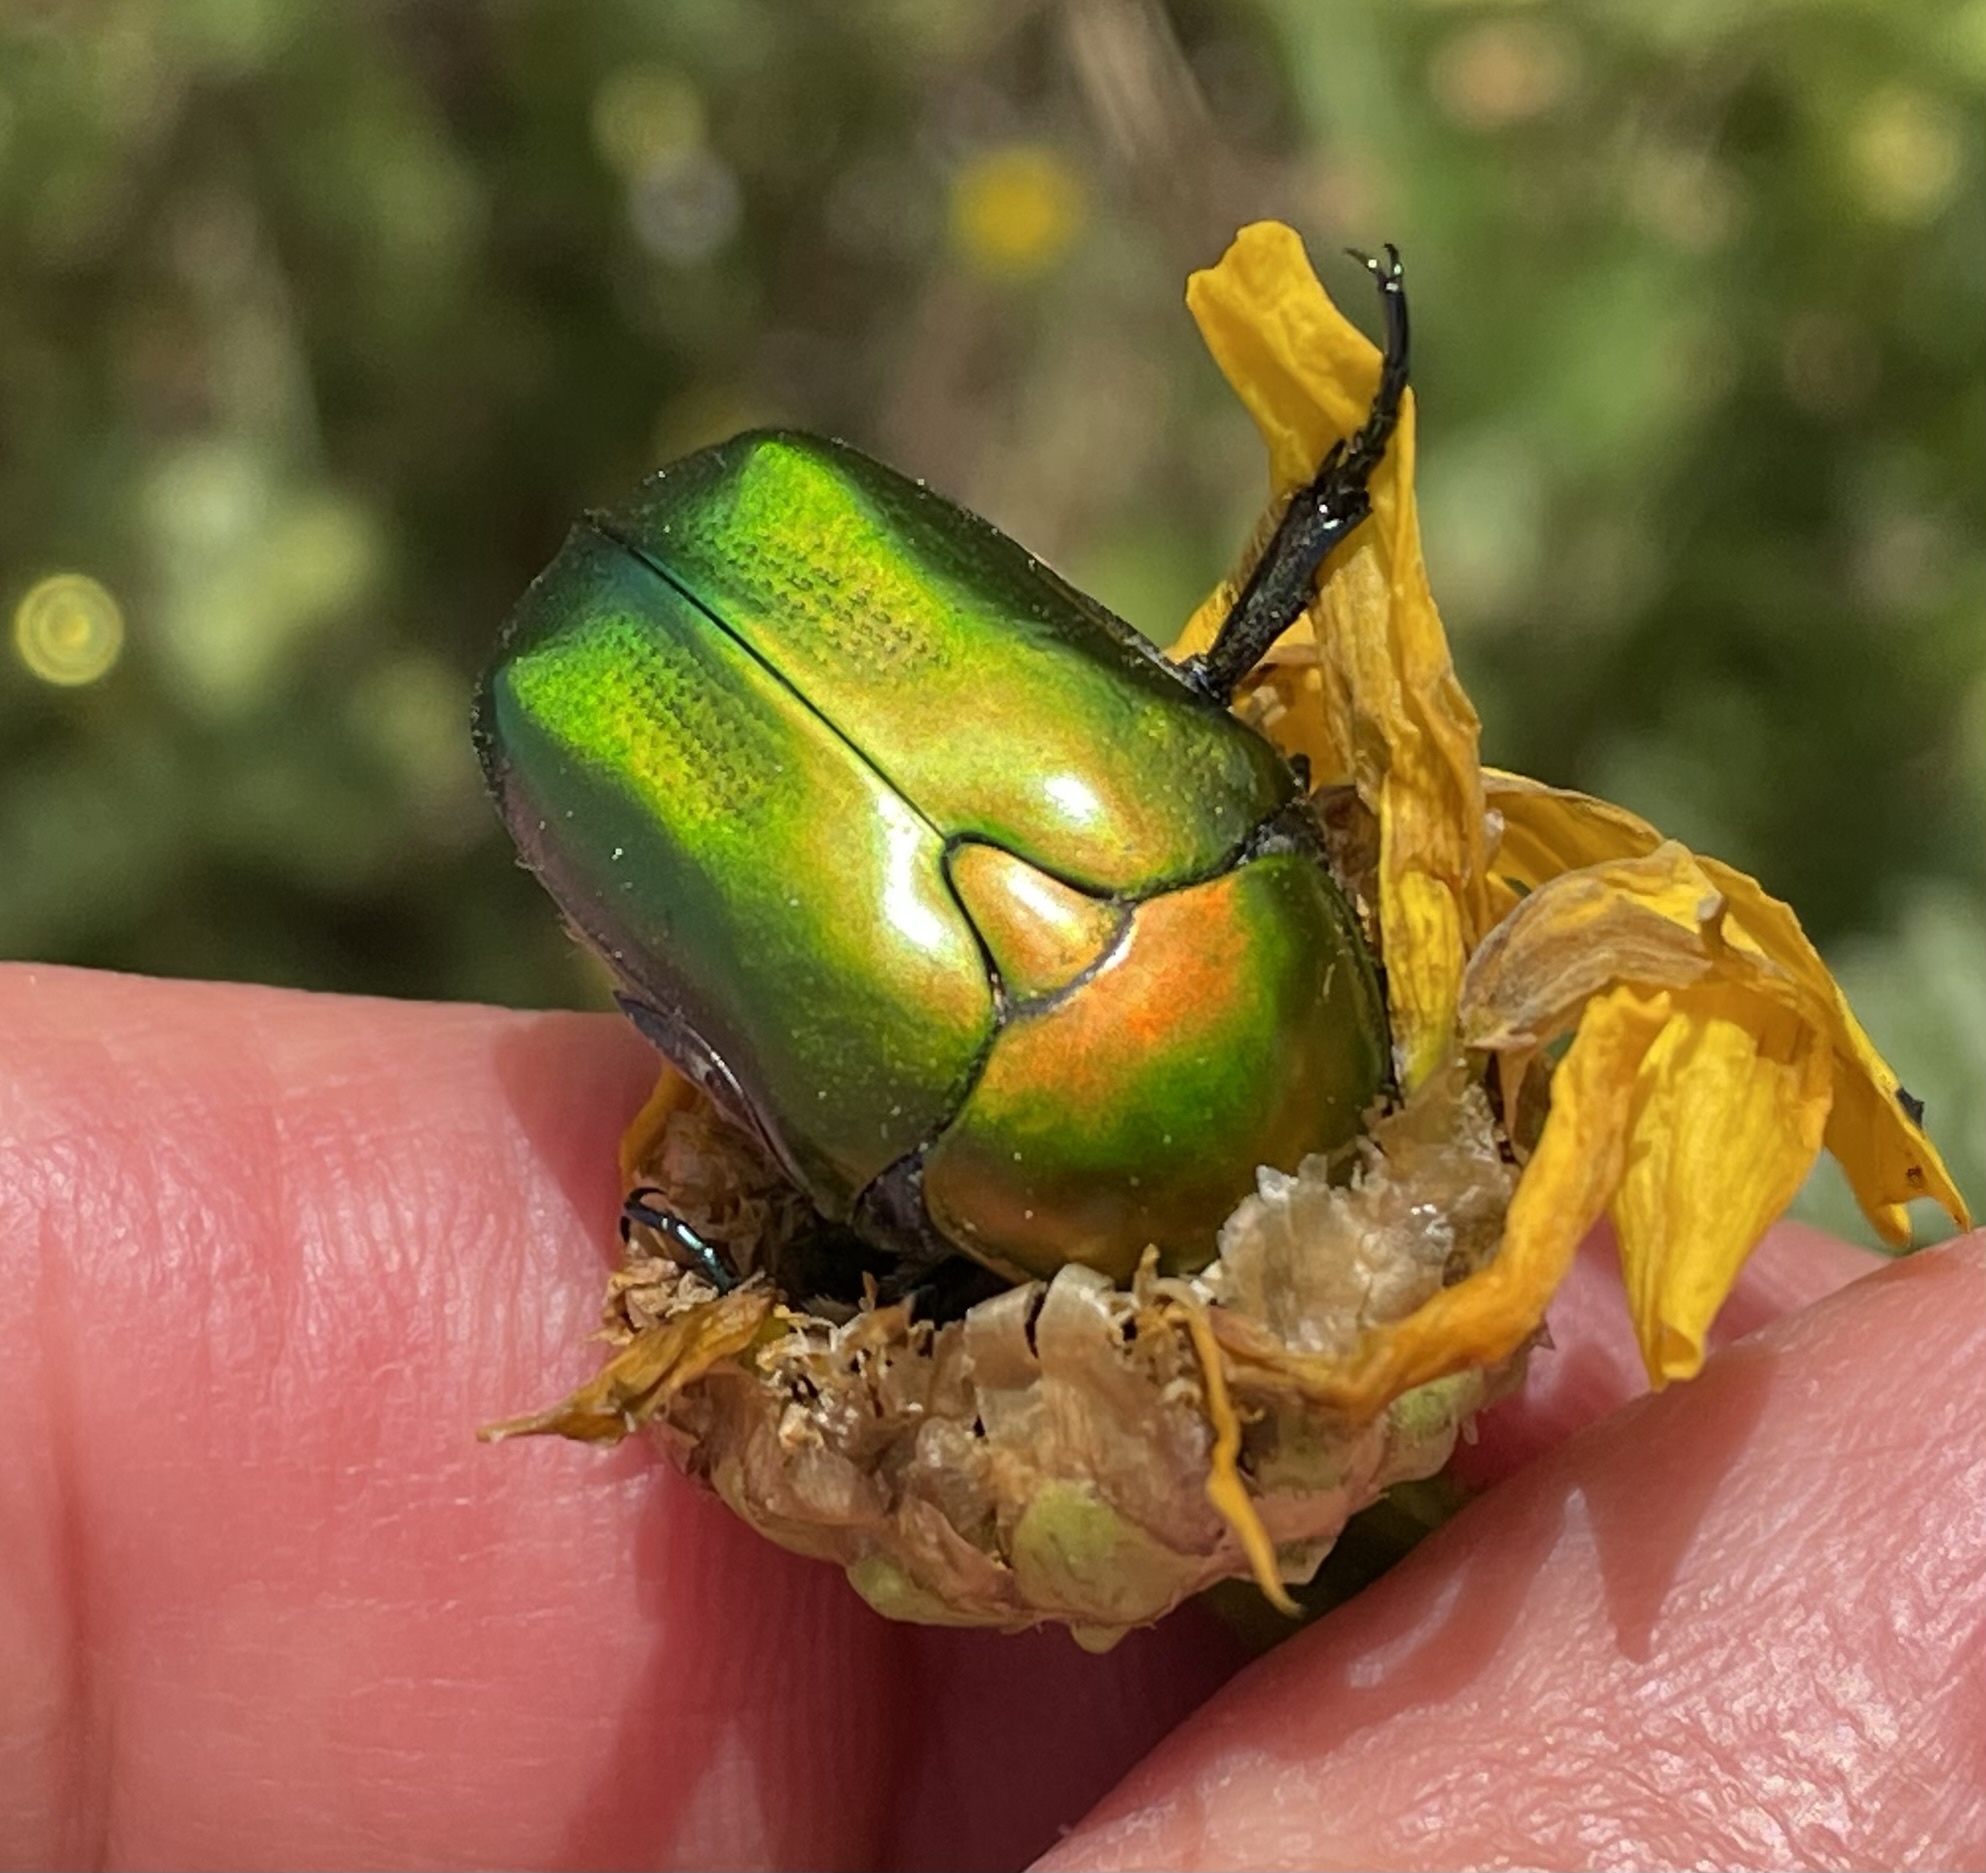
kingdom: Animalia
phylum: Arthropoda
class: Insecta
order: Coleoptera
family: Scarabaeidae
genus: Protaetia
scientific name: Protaetia cuprea
